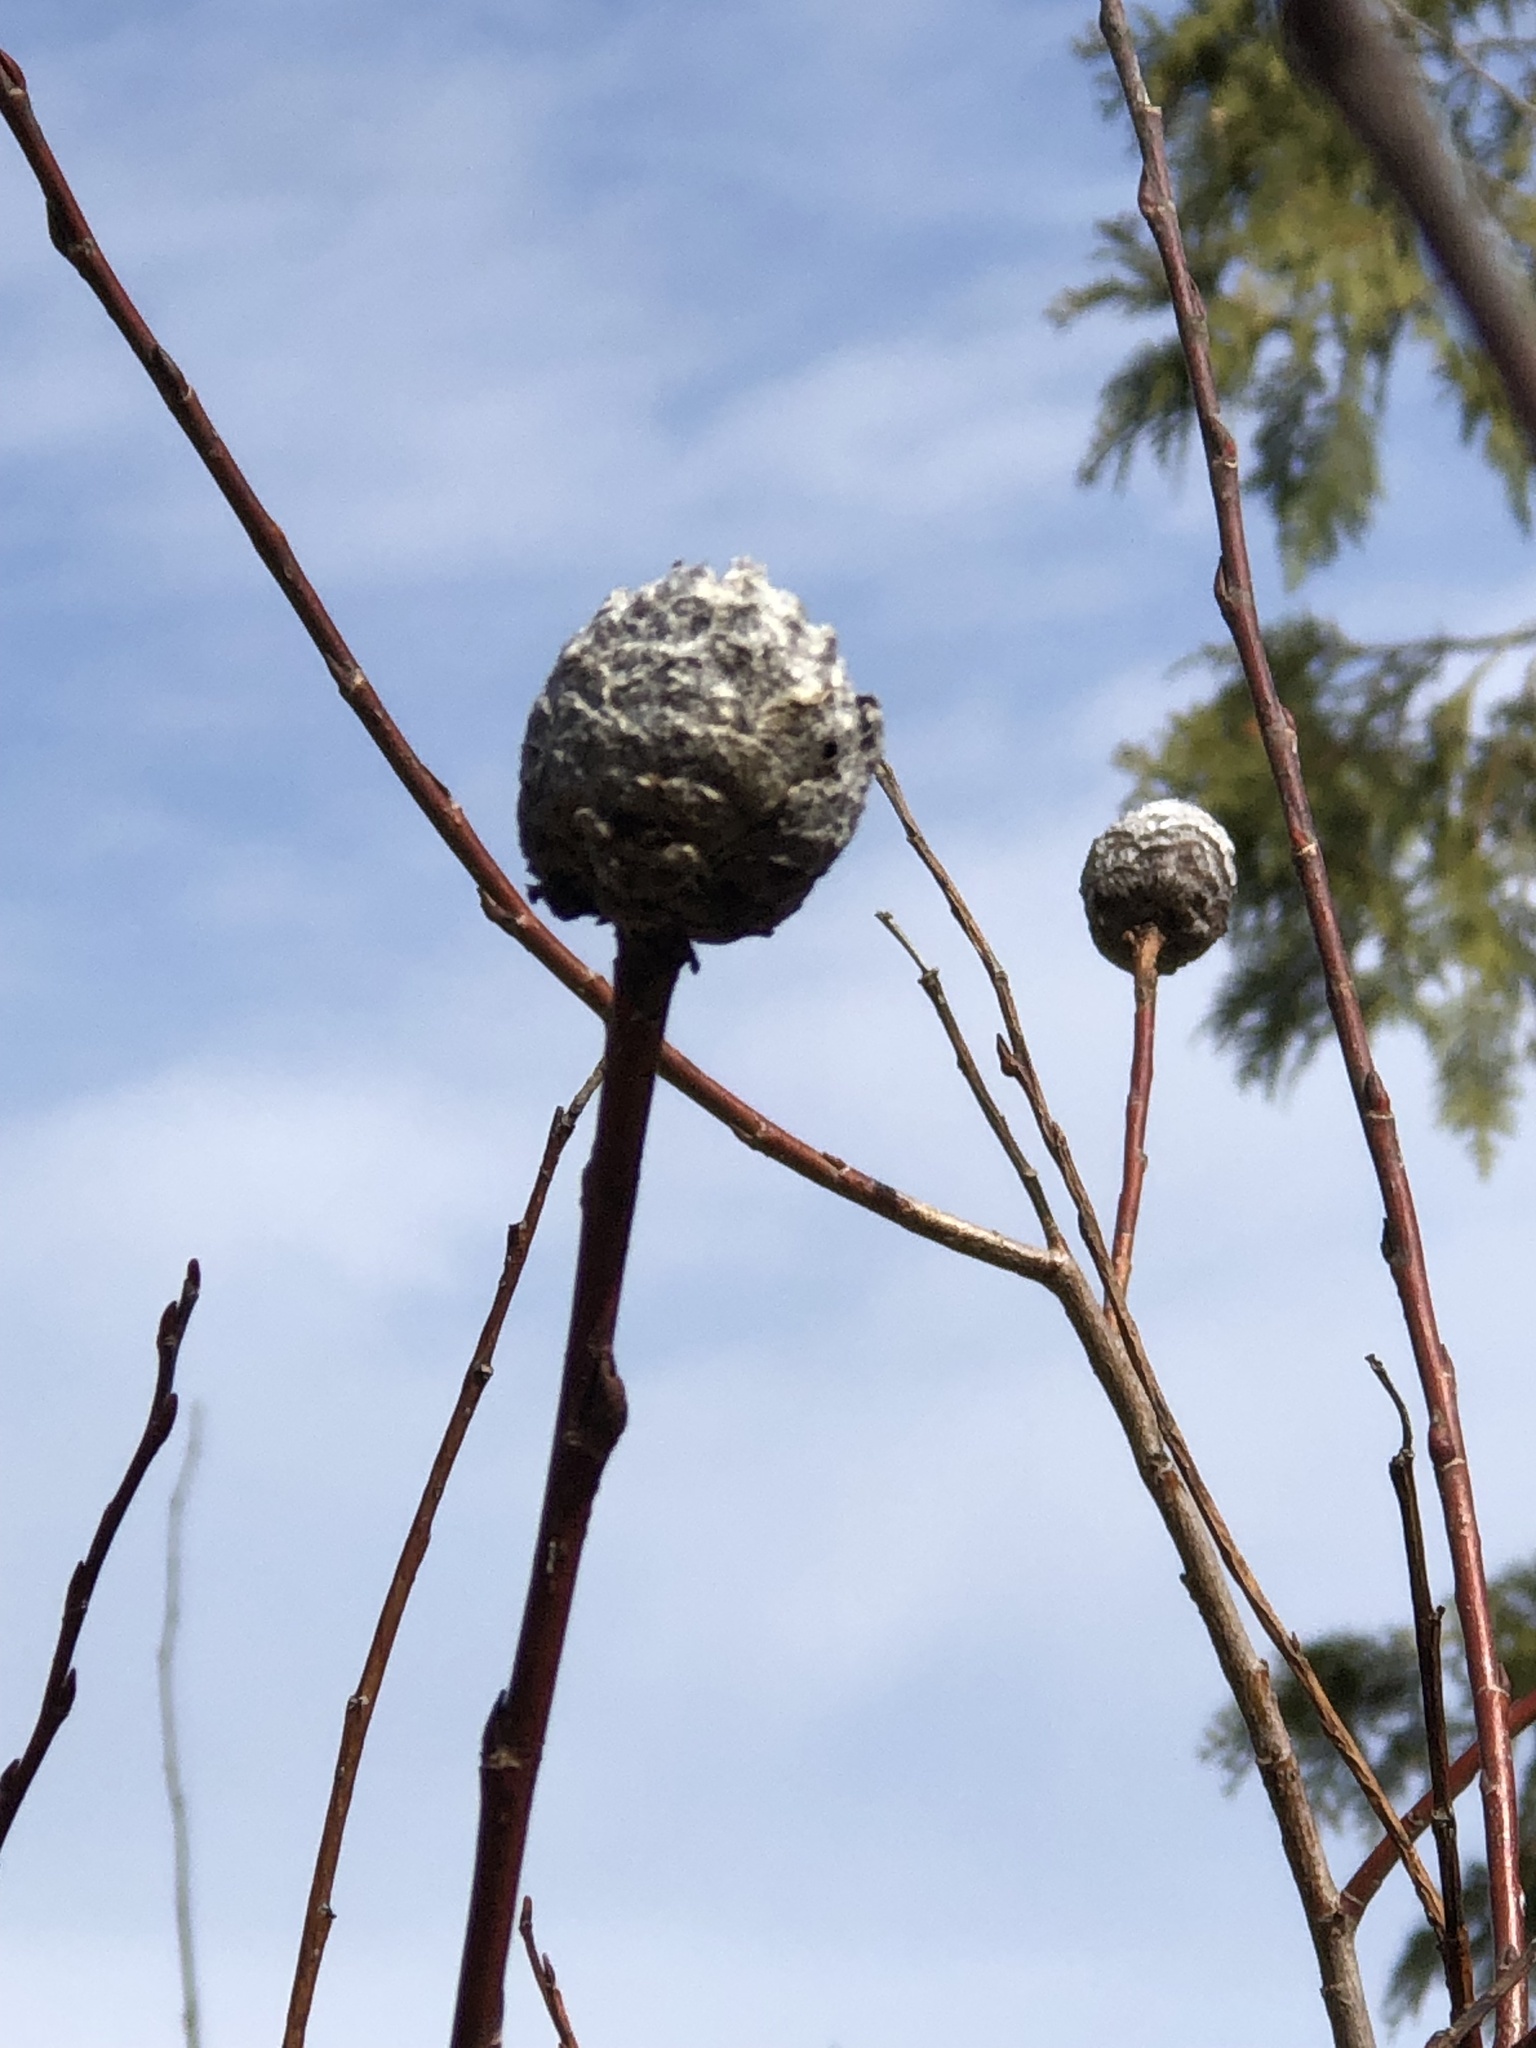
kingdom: Animalia
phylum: Arthropoda
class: Insecta
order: Diptera
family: Cecidomyiidae
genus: Rabdophaga
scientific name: Rabdophaga strobiloides
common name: Willow pinecone gall midge
